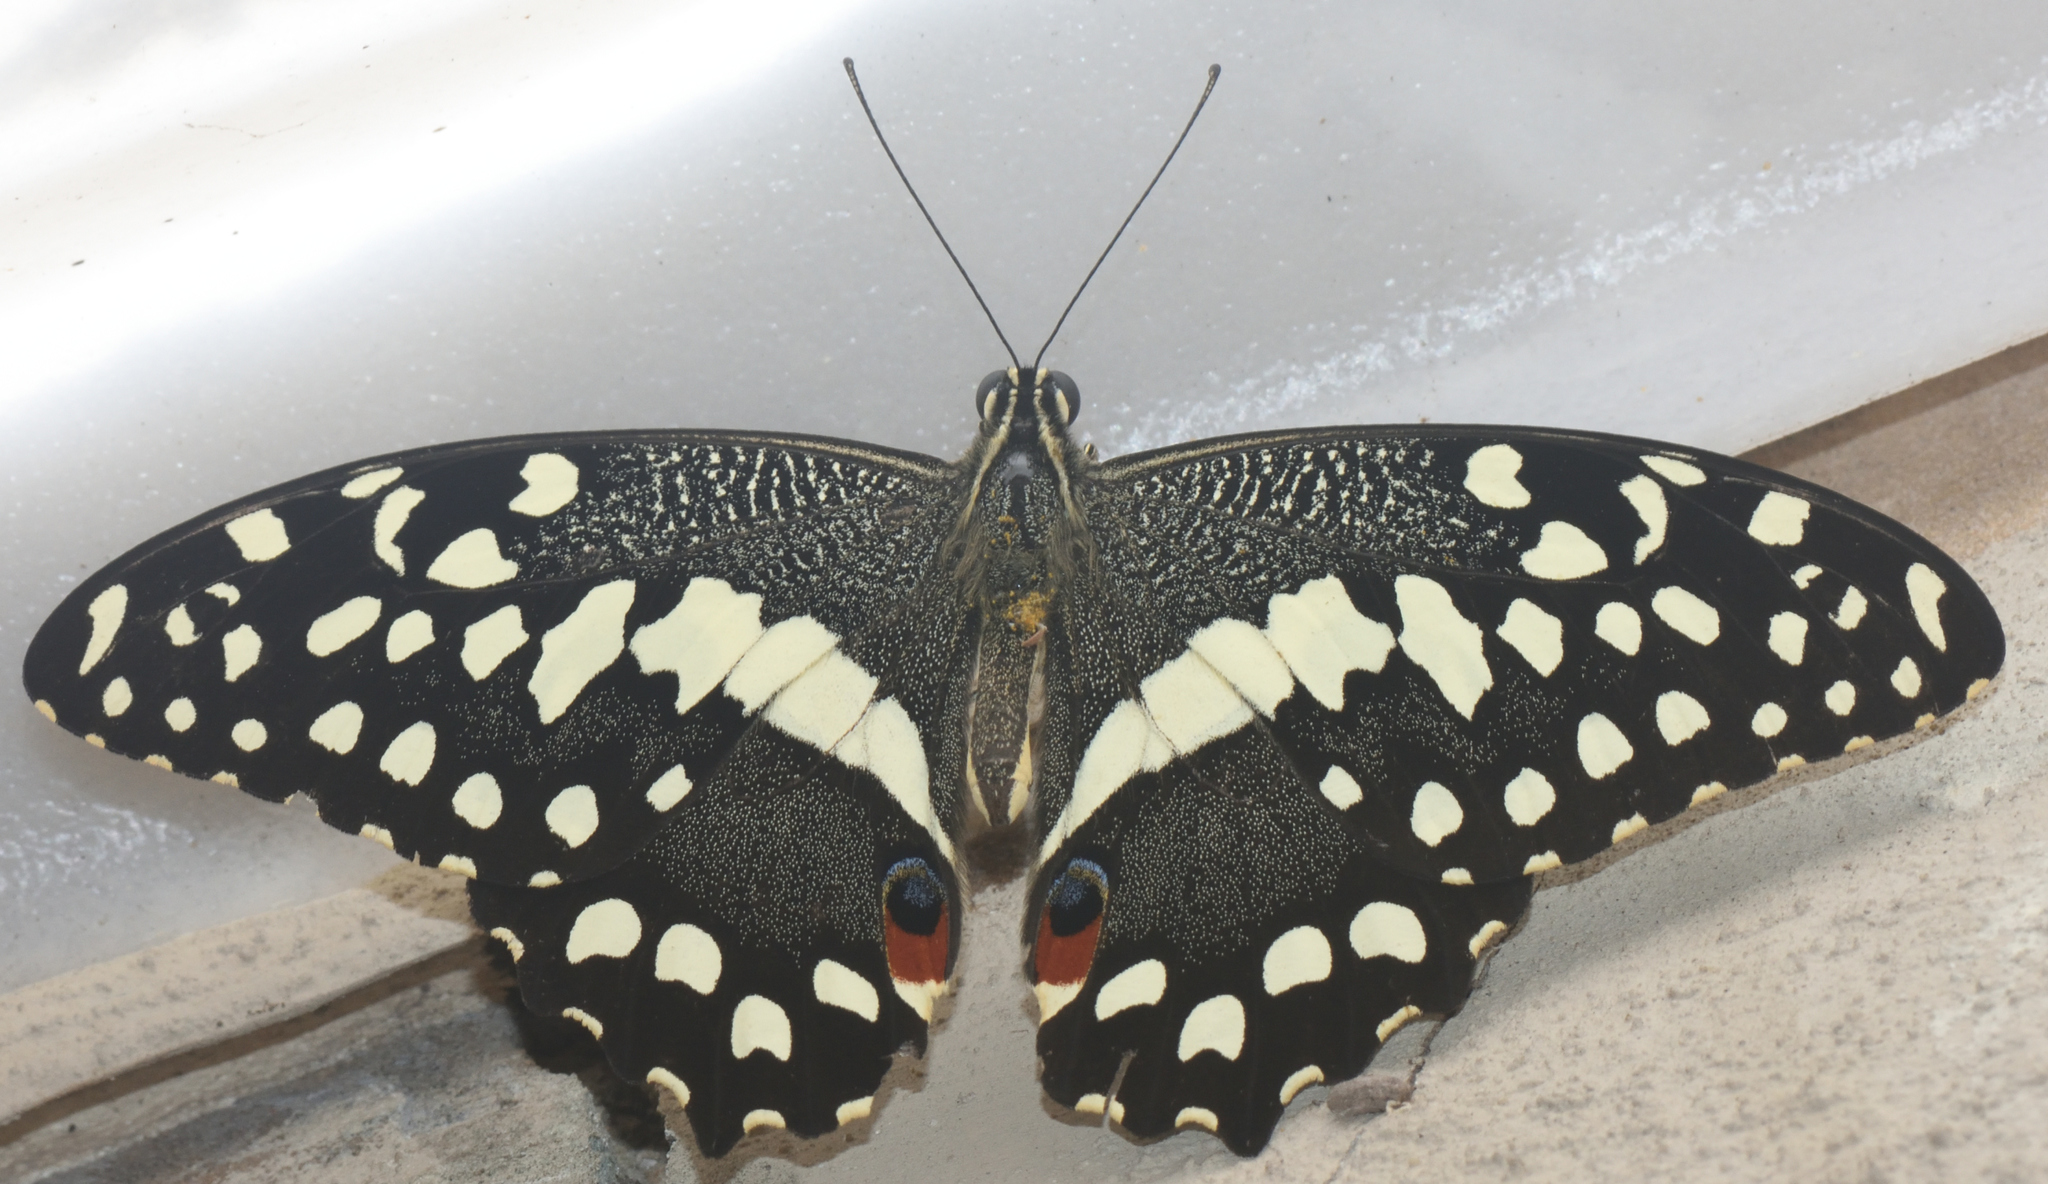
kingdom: Animalia
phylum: Arthropoda
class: Insecta
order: Lepidoptera
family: Papilionidae
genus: Papilio
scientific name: Papilio demodocus
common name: Christmas butterfly
